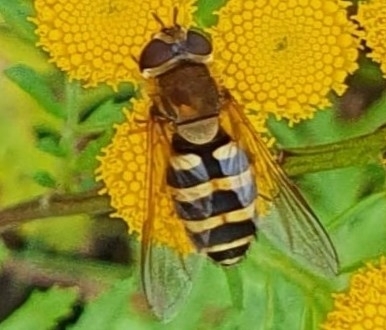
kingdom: Animalia
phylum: Arthropoda
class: Insecta
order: Diptera
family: Syrphidae
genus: Syrphus
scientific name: Syrphus
